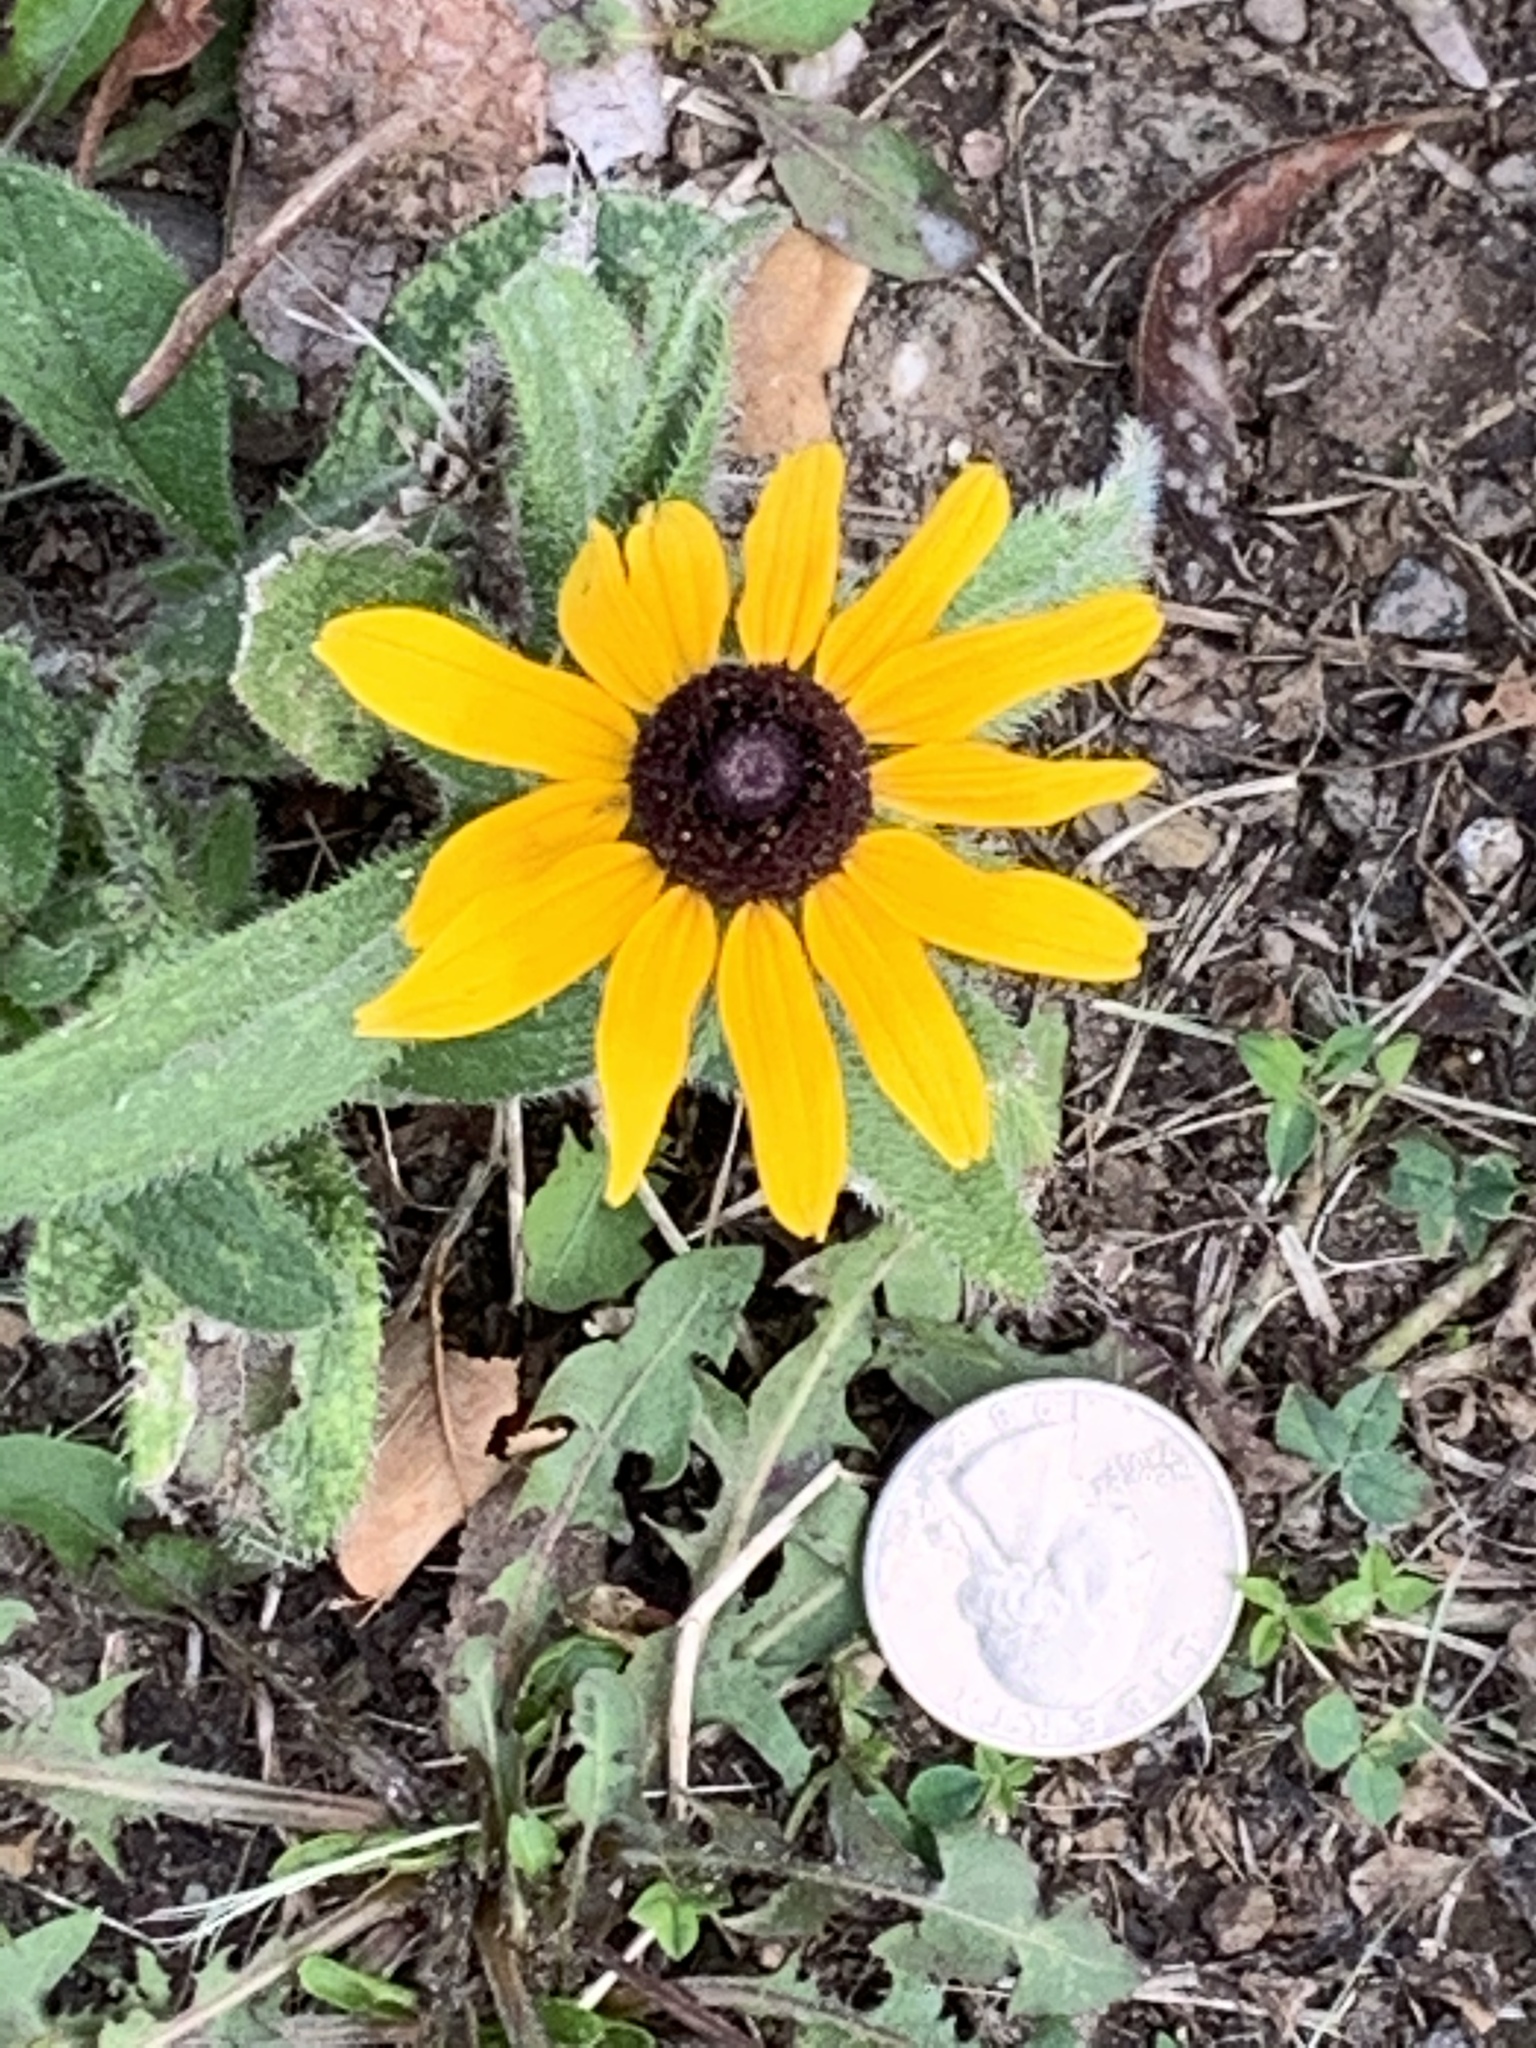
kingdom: Plantae
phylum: Tracheophyta
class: Magnoliopsida
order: Asterales
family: Asteraceae
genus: Rudbeckia
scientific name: Rudbeckia hirta
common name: Black-eyed-susan
